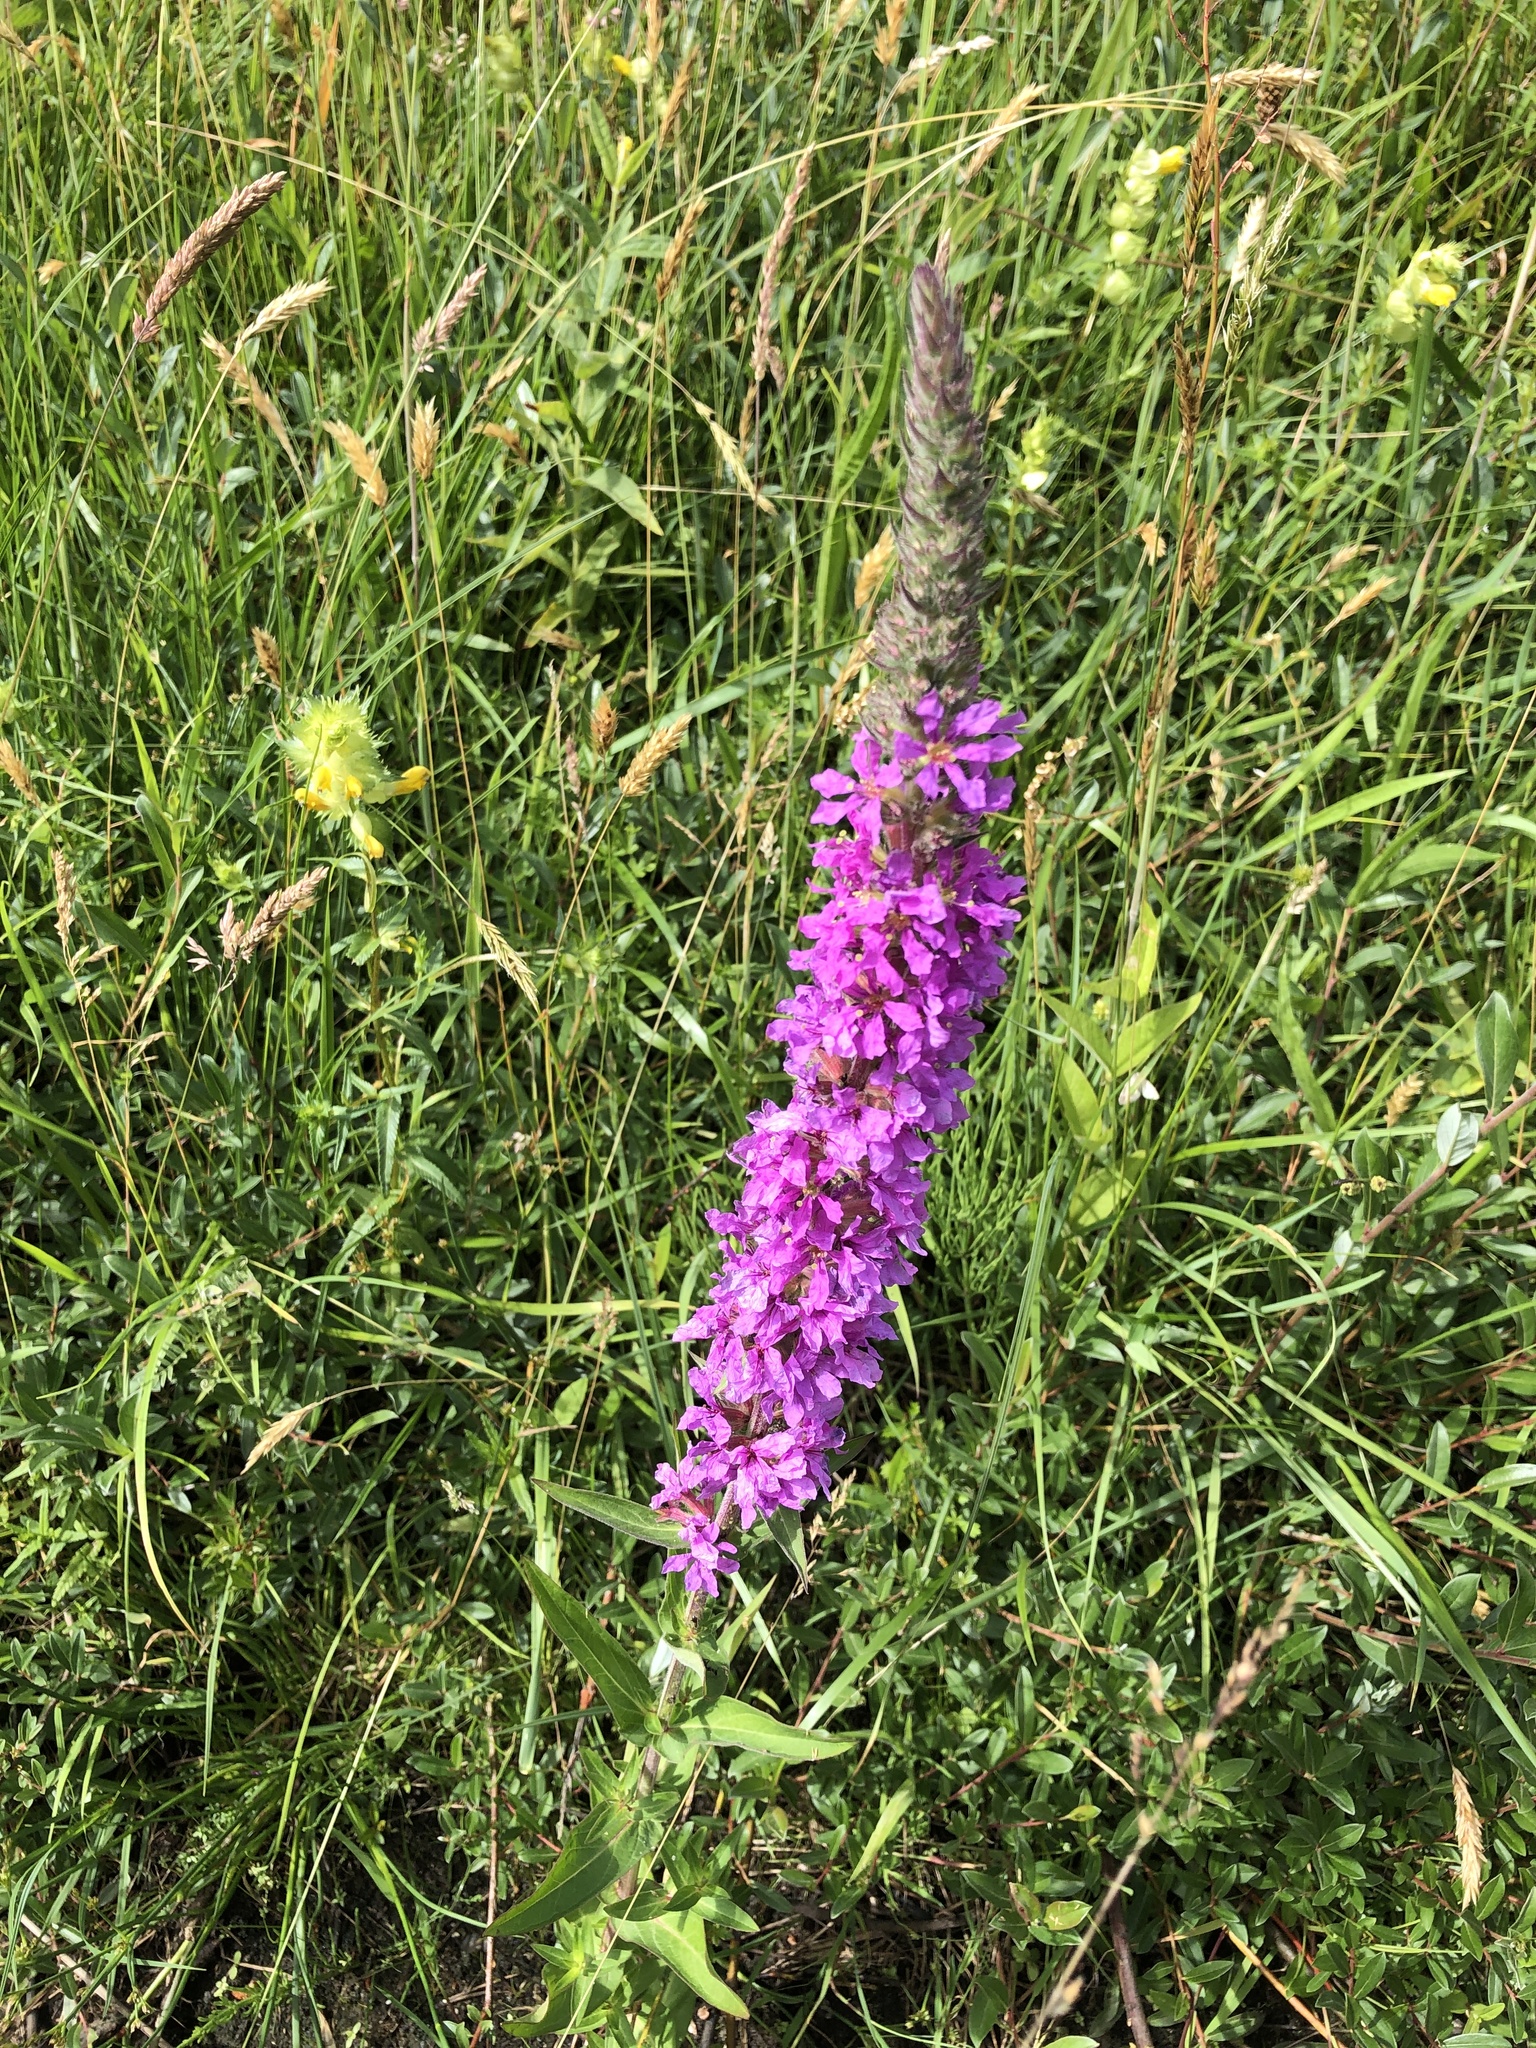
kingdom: Plantae
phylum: Tracheophyta
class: Magnoliopsida
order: Myrtales
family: Lythraceae
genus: Lythrum
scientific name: Lythrum salicaria
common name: Purple loosestrife
